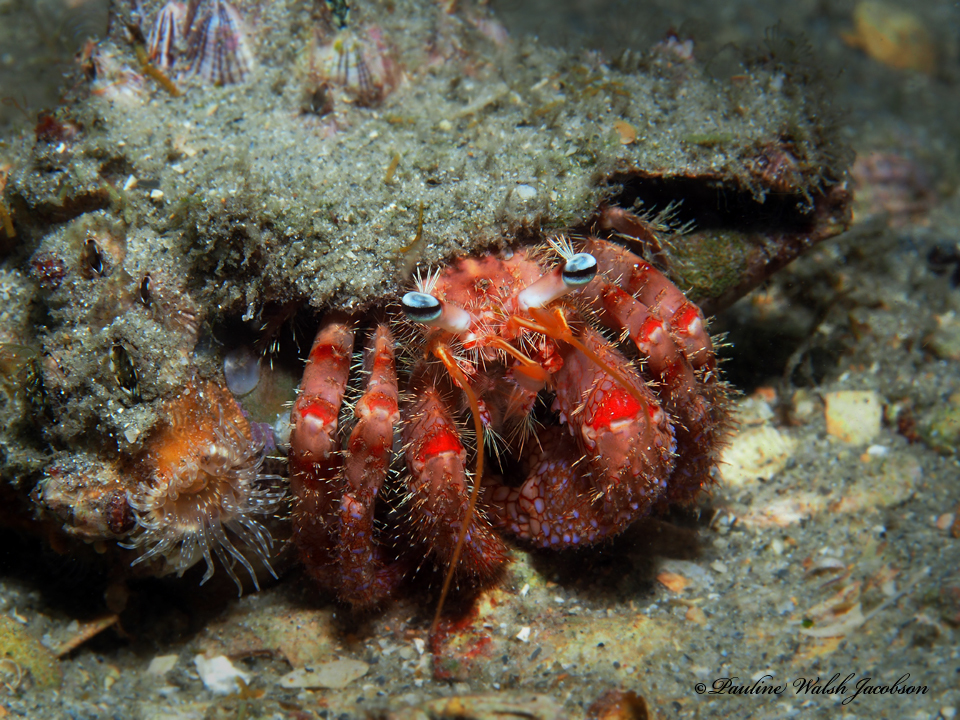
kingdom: Animalia
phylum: Arthropoda
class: Malacostraca
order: Decapoda
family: Diogenidae
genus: Dardanus
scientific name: Dardanus fucosus
